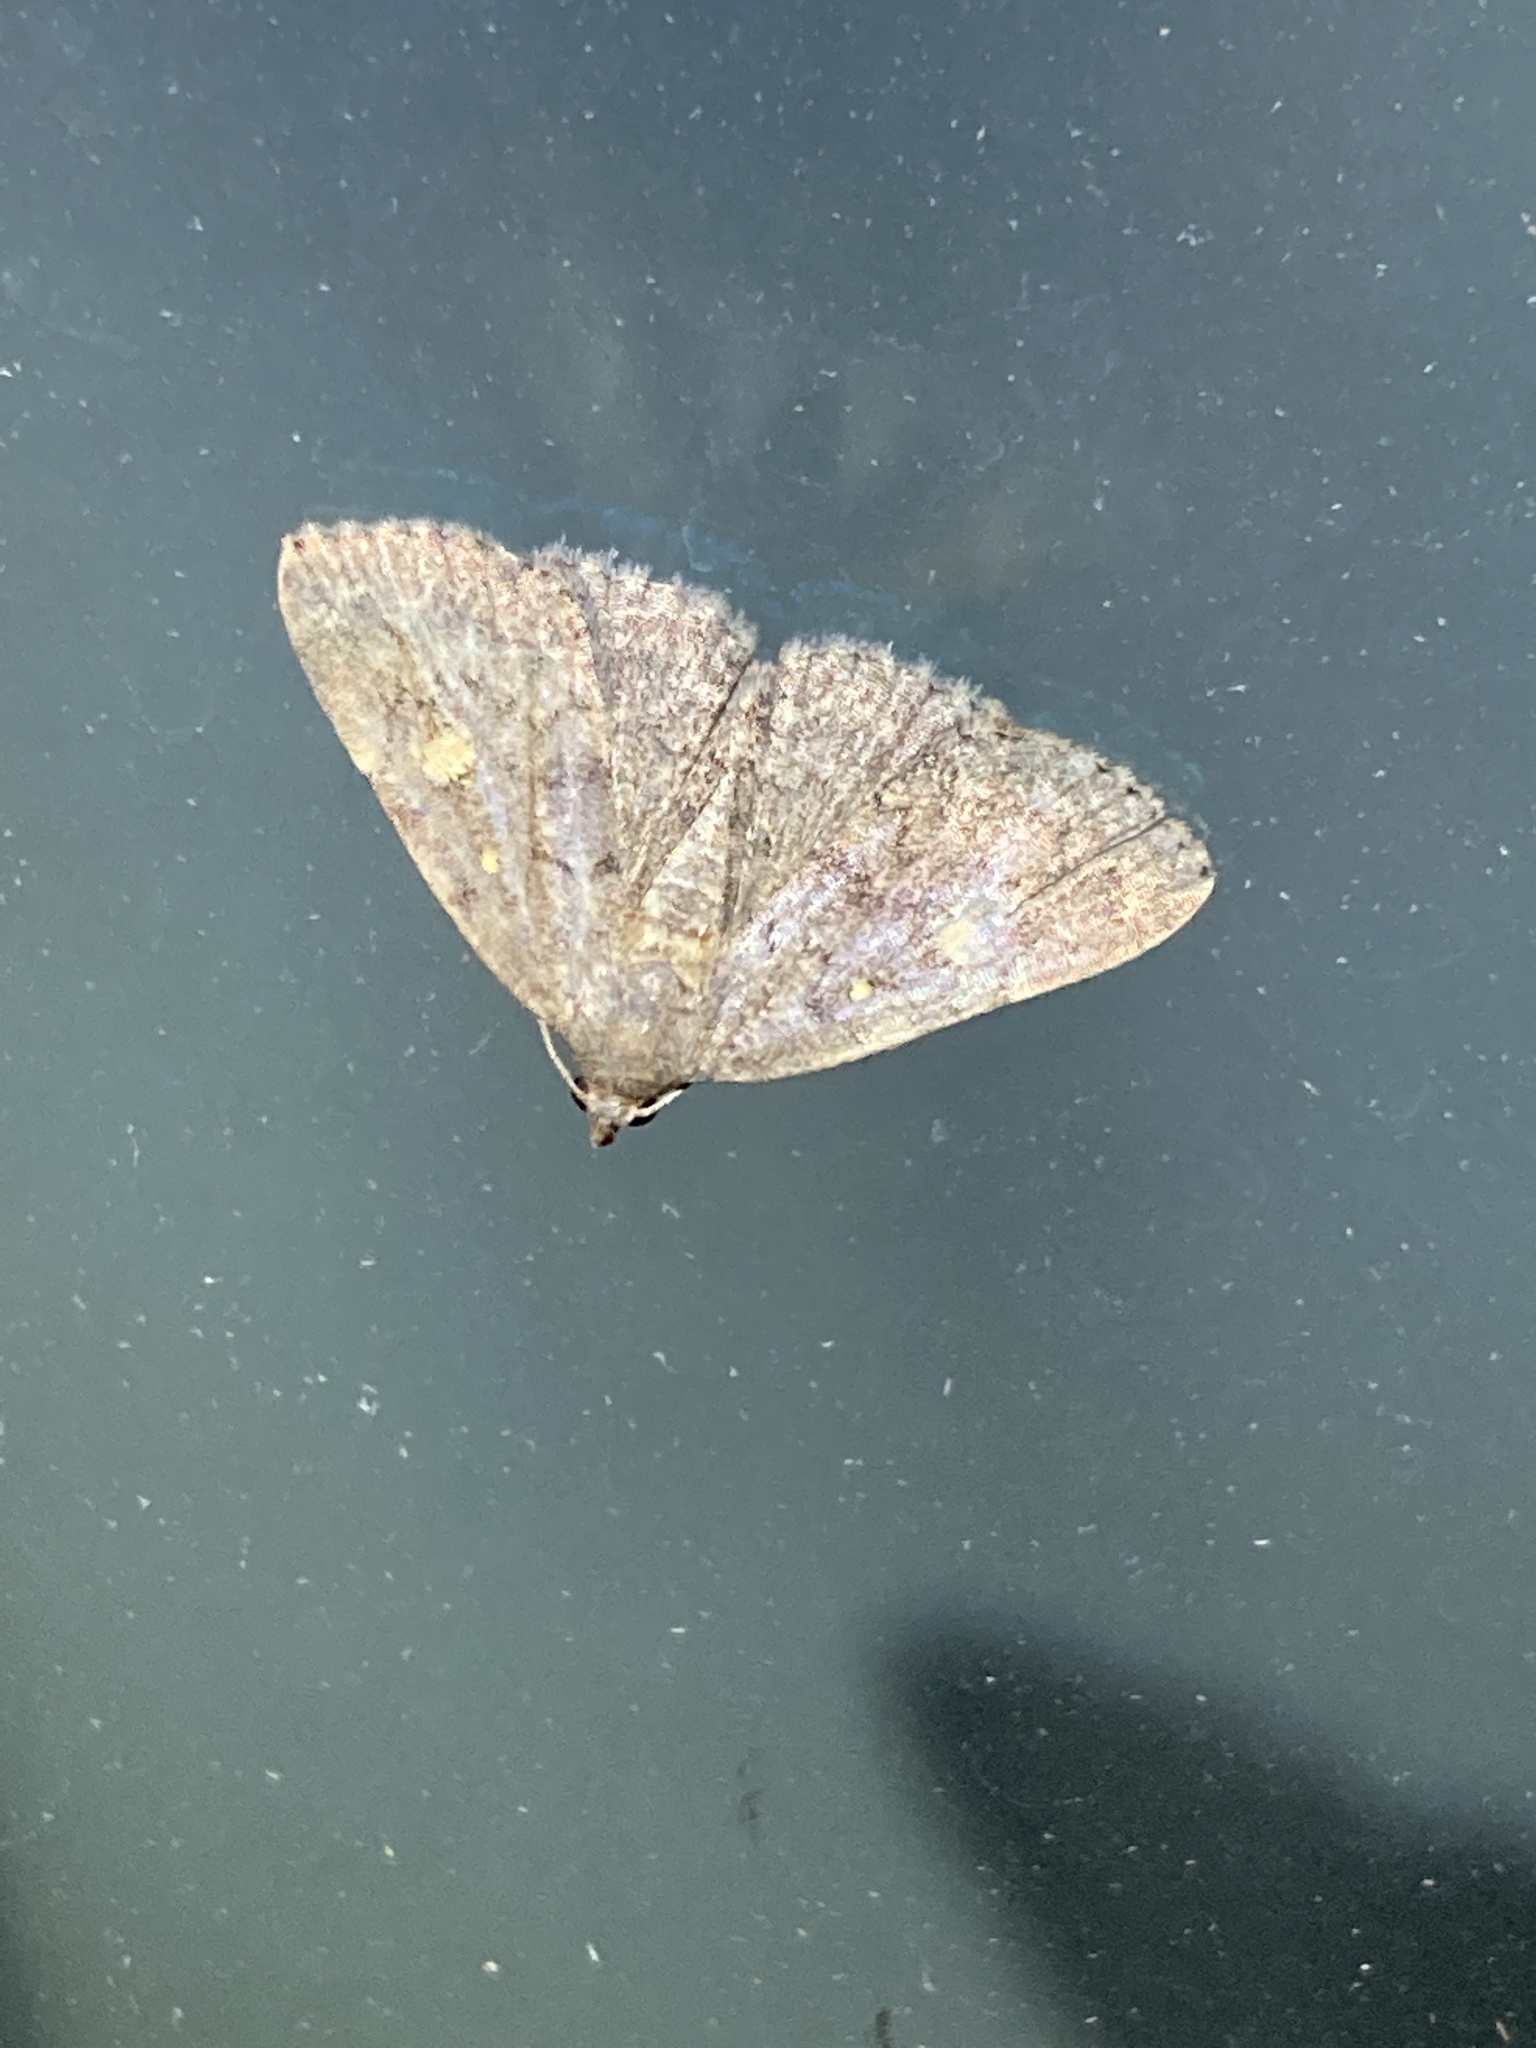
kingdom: Animalia
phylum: Arthropoda
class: Insecta
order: Lepidoptera
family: Erebidae
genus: Idia
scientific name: Idia aemula
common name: Common idia moth
